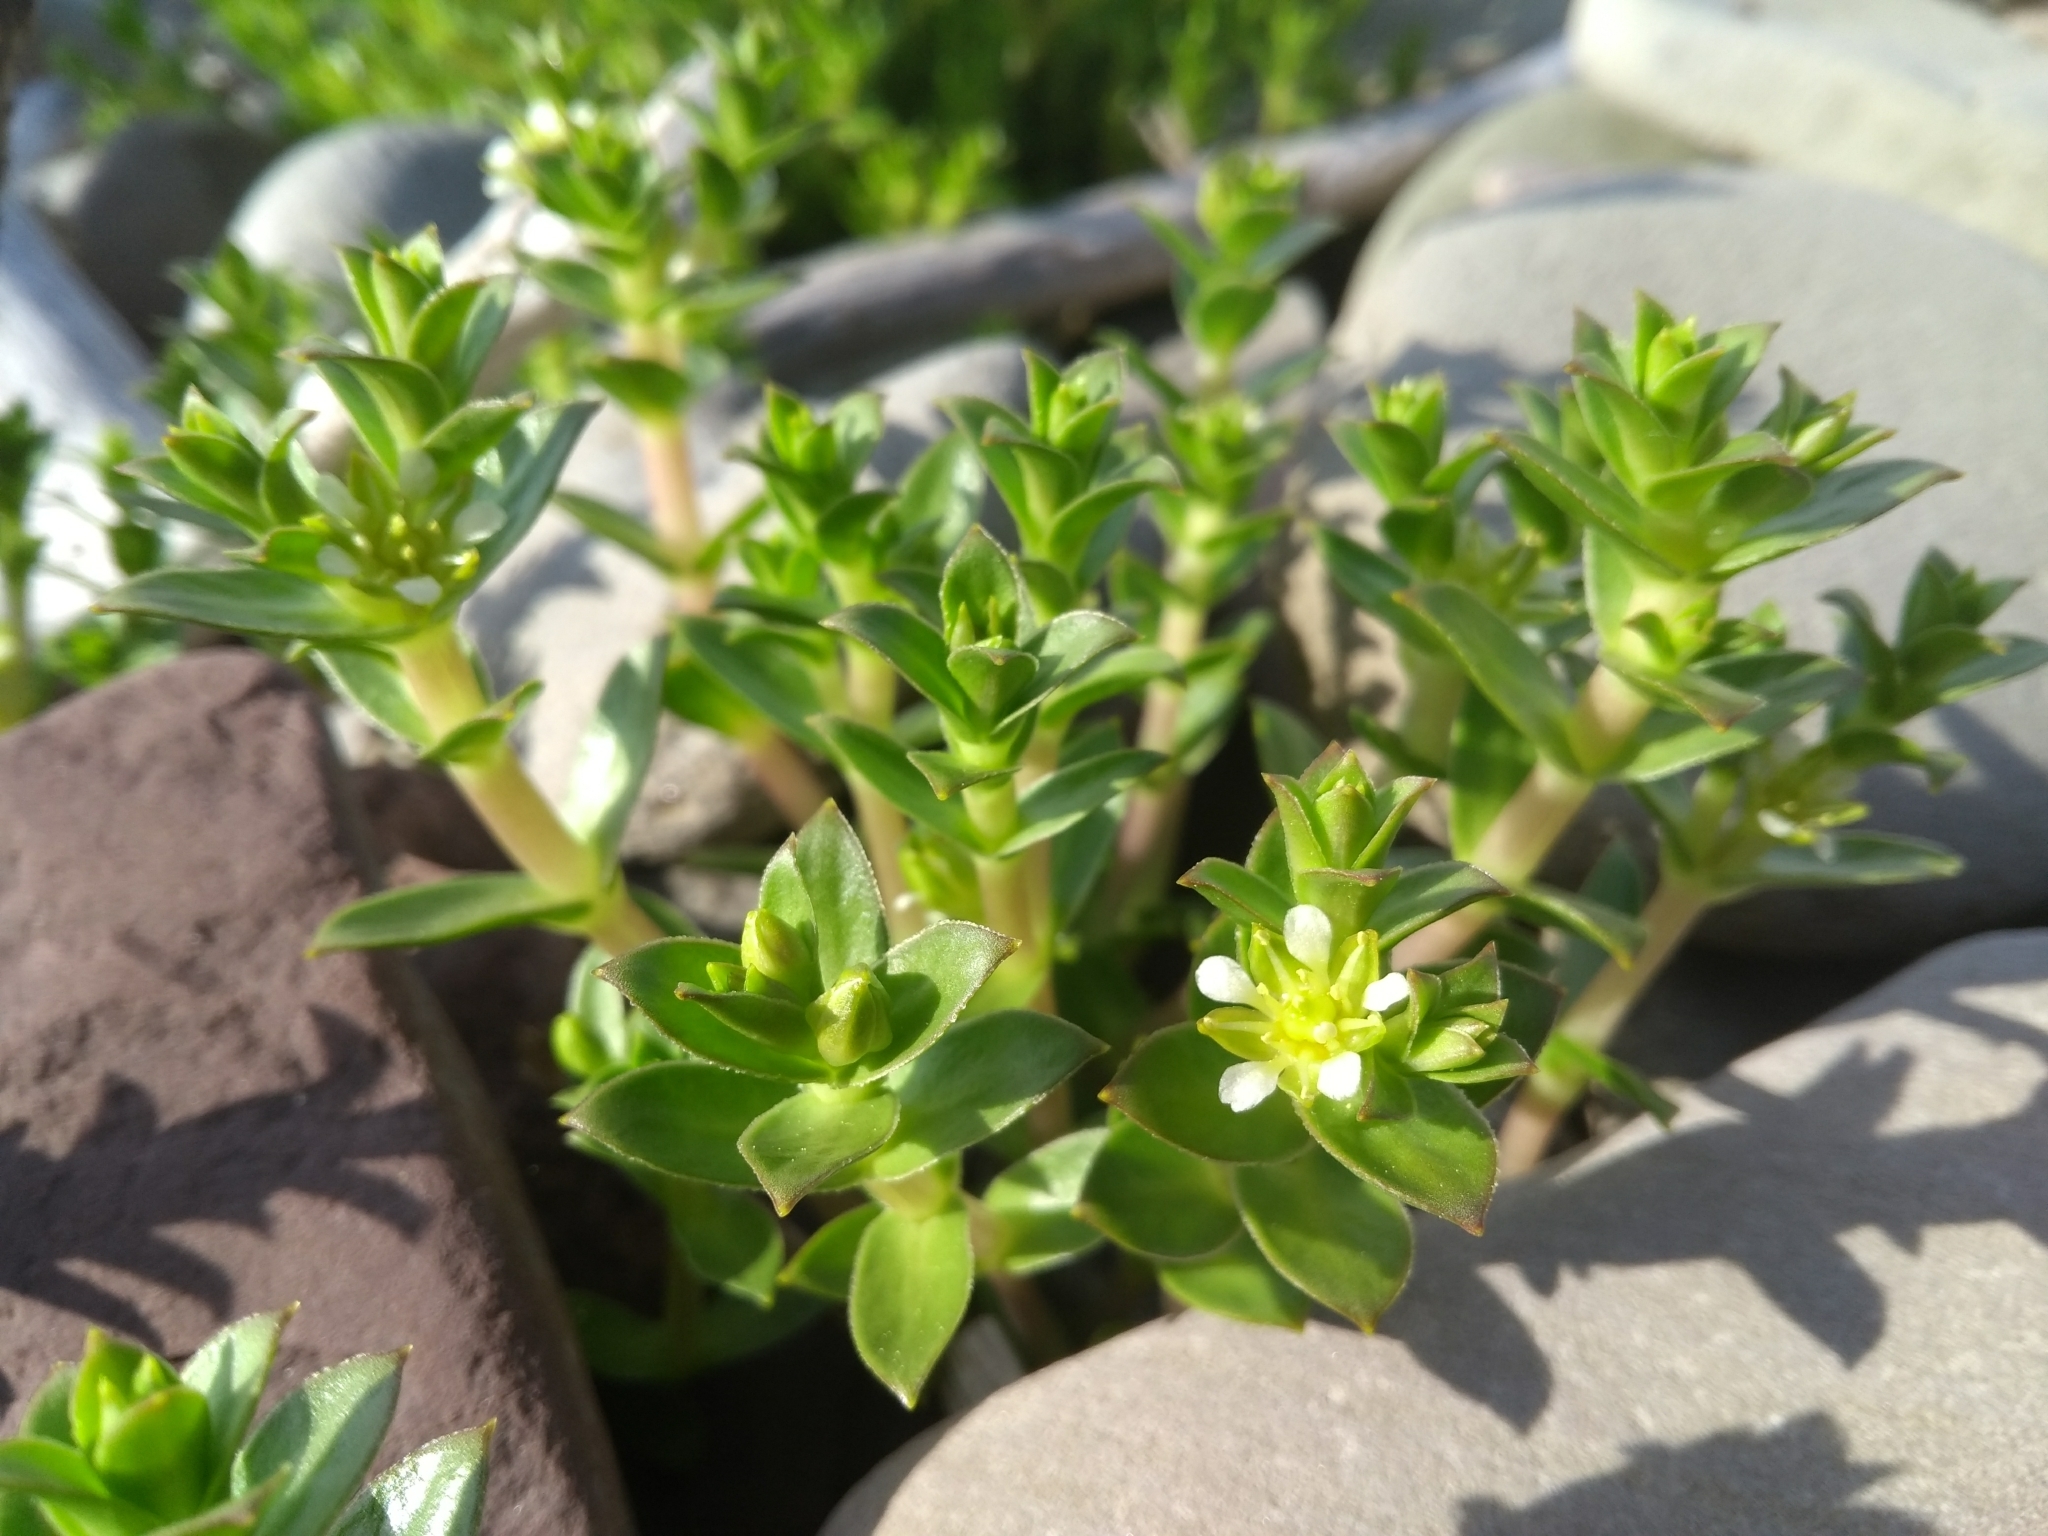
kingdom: Plantae
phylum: Tracheophyta
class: Magnoliopsida
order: Caryophyllales
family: Caryophyllaceae
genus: Honckenya
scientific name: Honckenya peploides
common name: Sea sandwort
